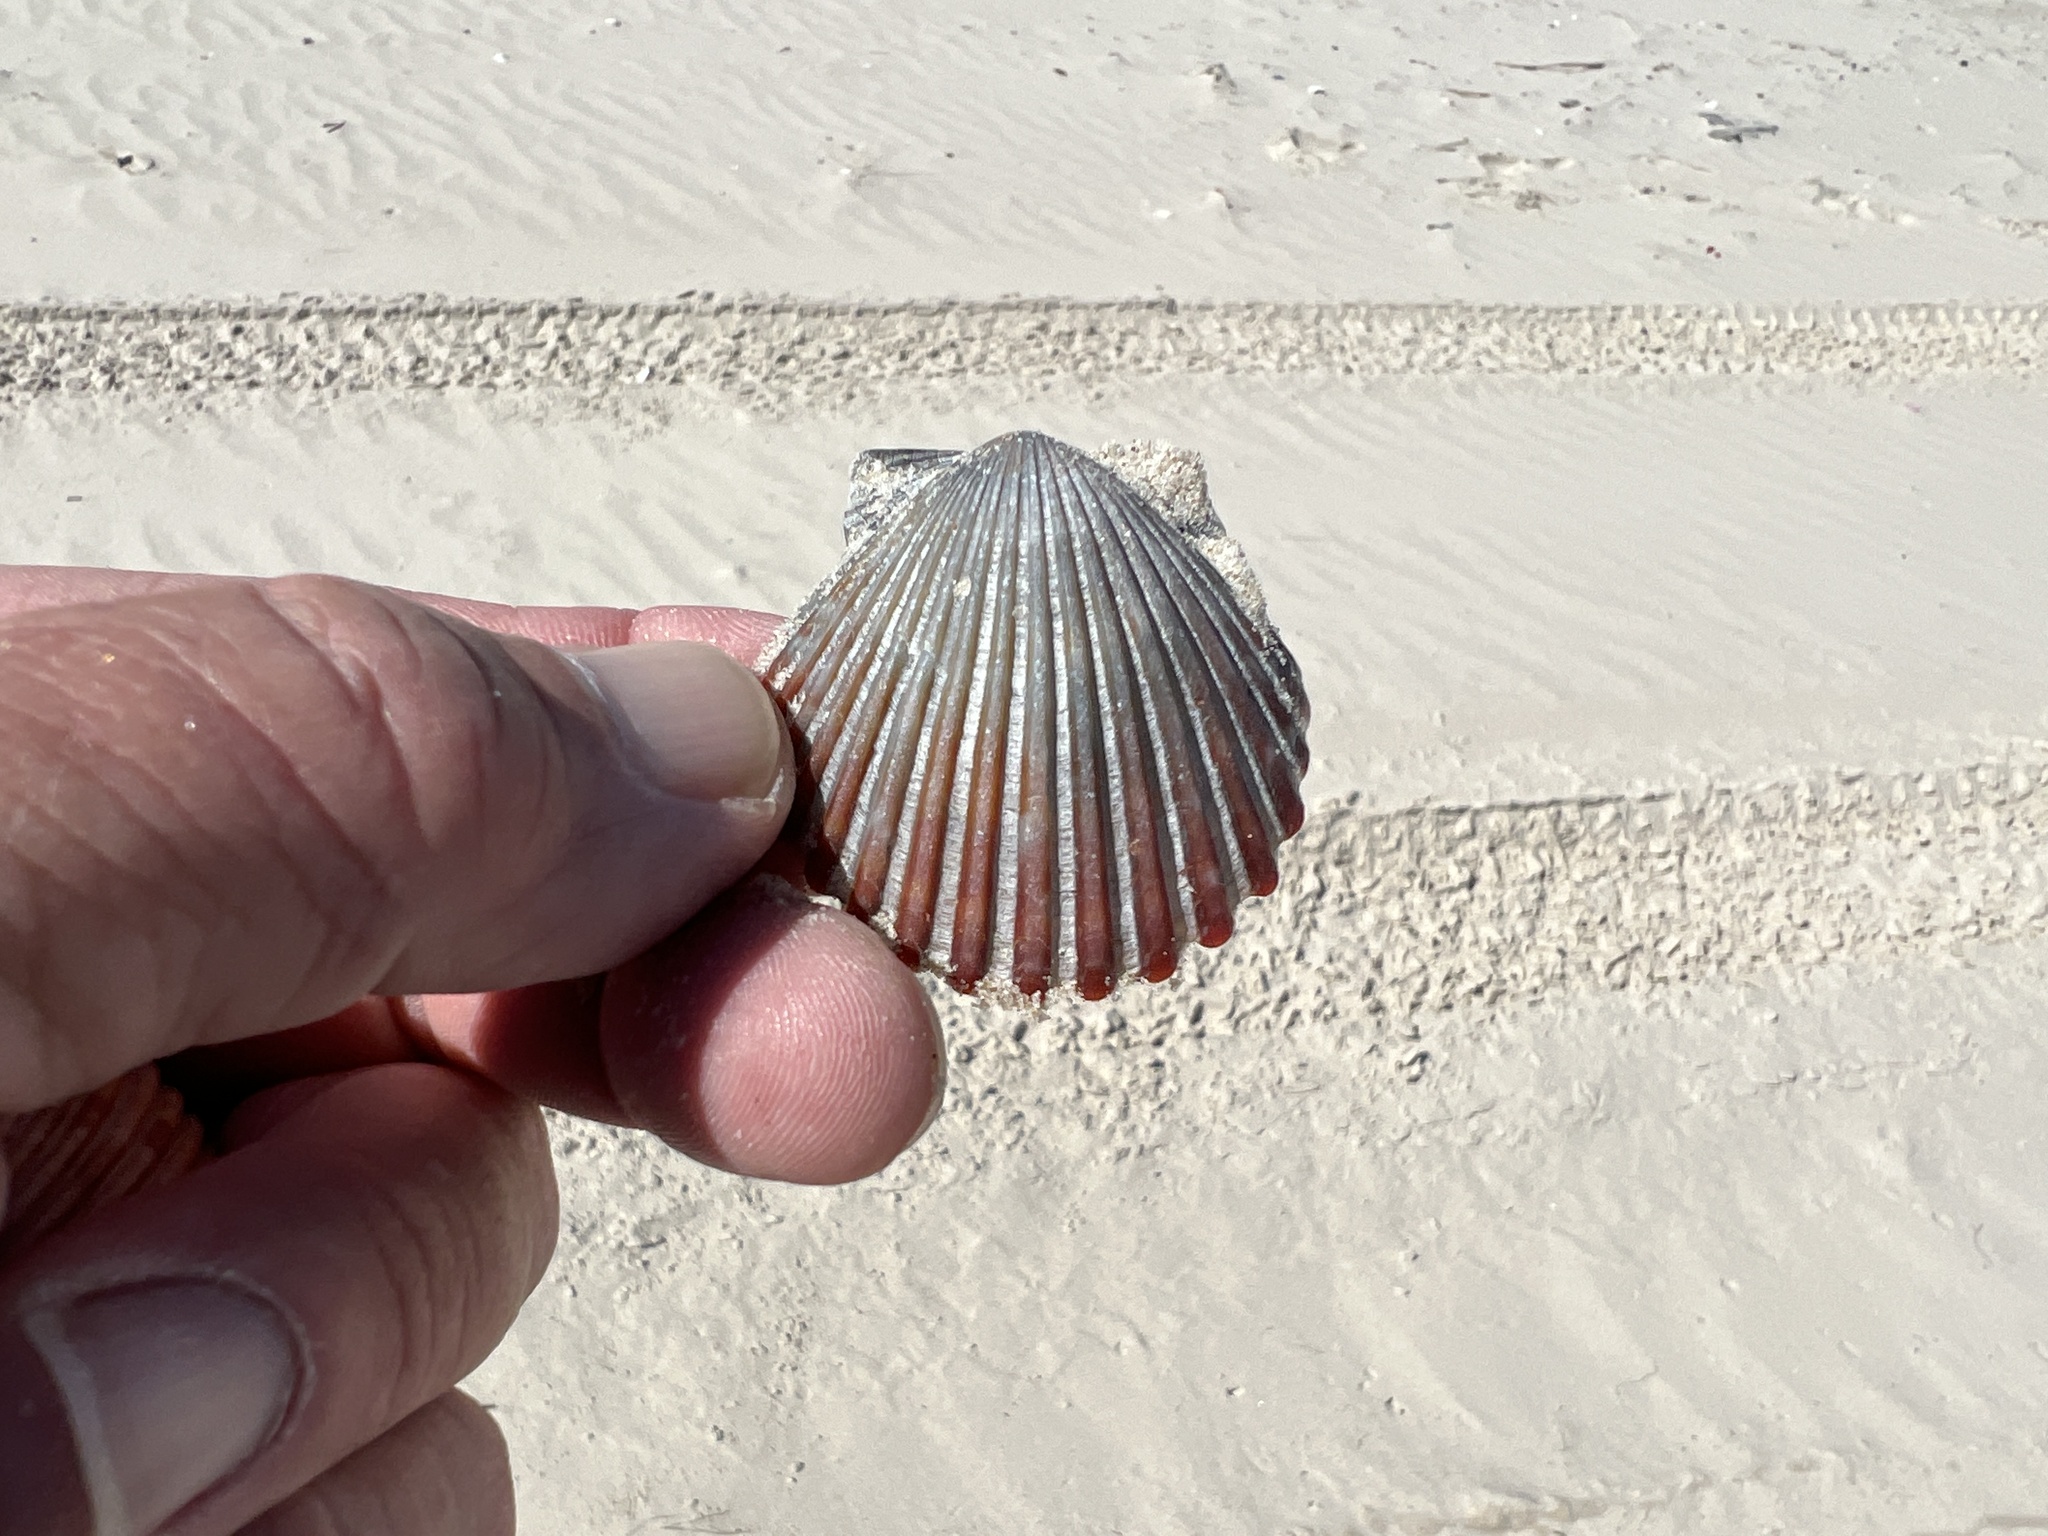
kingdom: Animalia
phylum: Mollusca
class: Bivalvia
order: Pectinida
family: Pectinidae
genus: Argopecten
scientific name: Argopecten irradians
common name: Atlantic bay scallop
